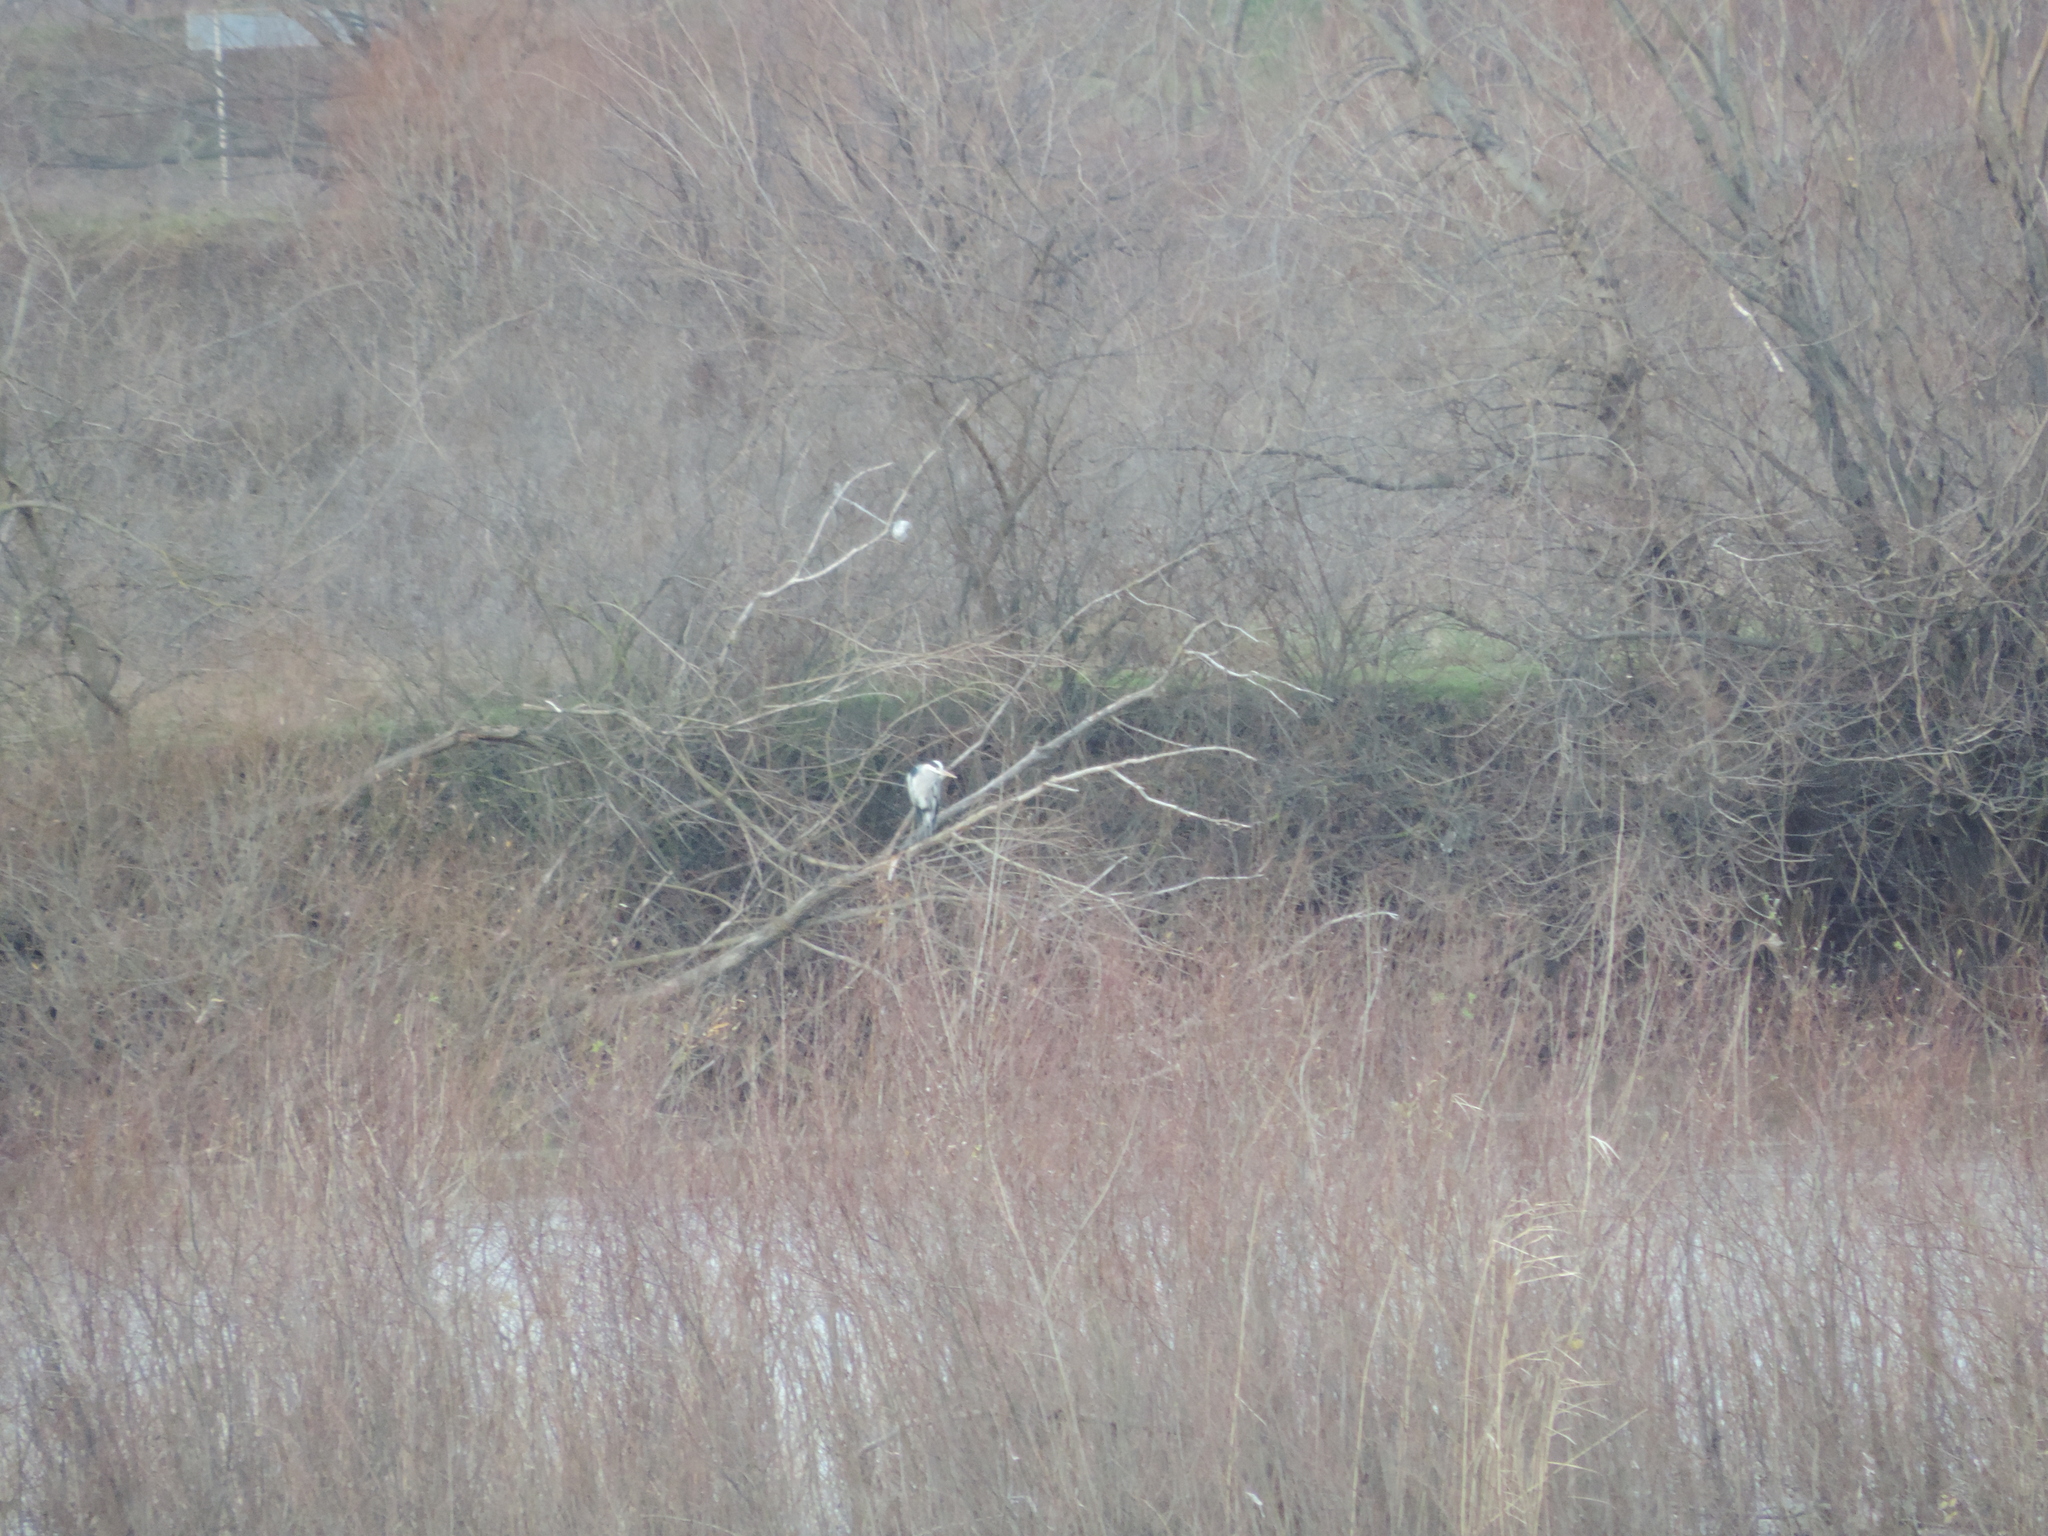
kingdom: Animalia
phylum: Chordata
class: Aves
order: Pelecaniformes
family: Ardeidae
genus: Ardea
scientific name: Ardea cinerea
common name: Grey heron
